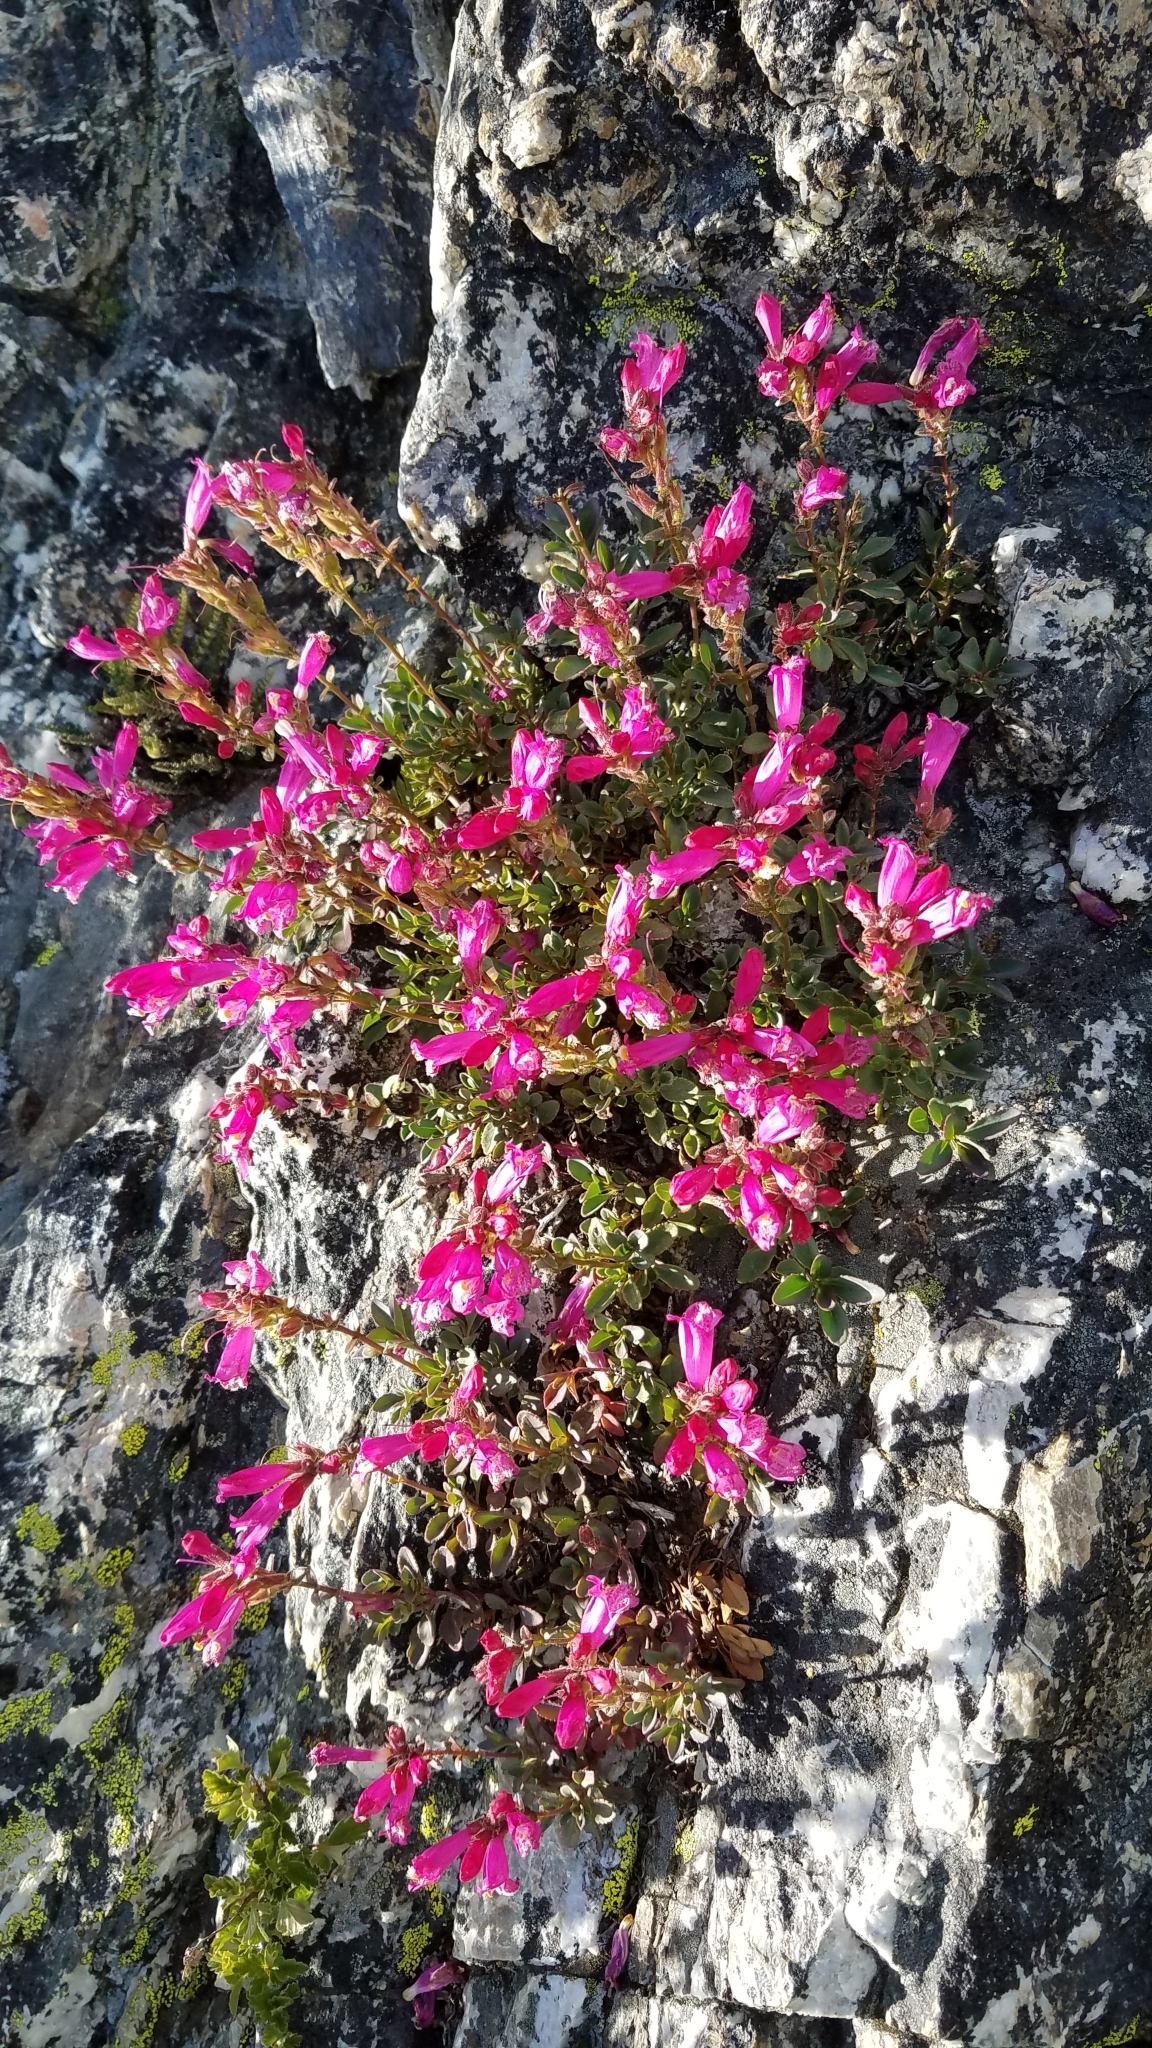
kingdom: Plantae
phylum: Tracheophyta
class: Magnoliopsida
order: Lamiales
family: Plantaginaceae
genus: Penstemon
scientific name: Penstemon newberryi
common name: Mountain-pride
